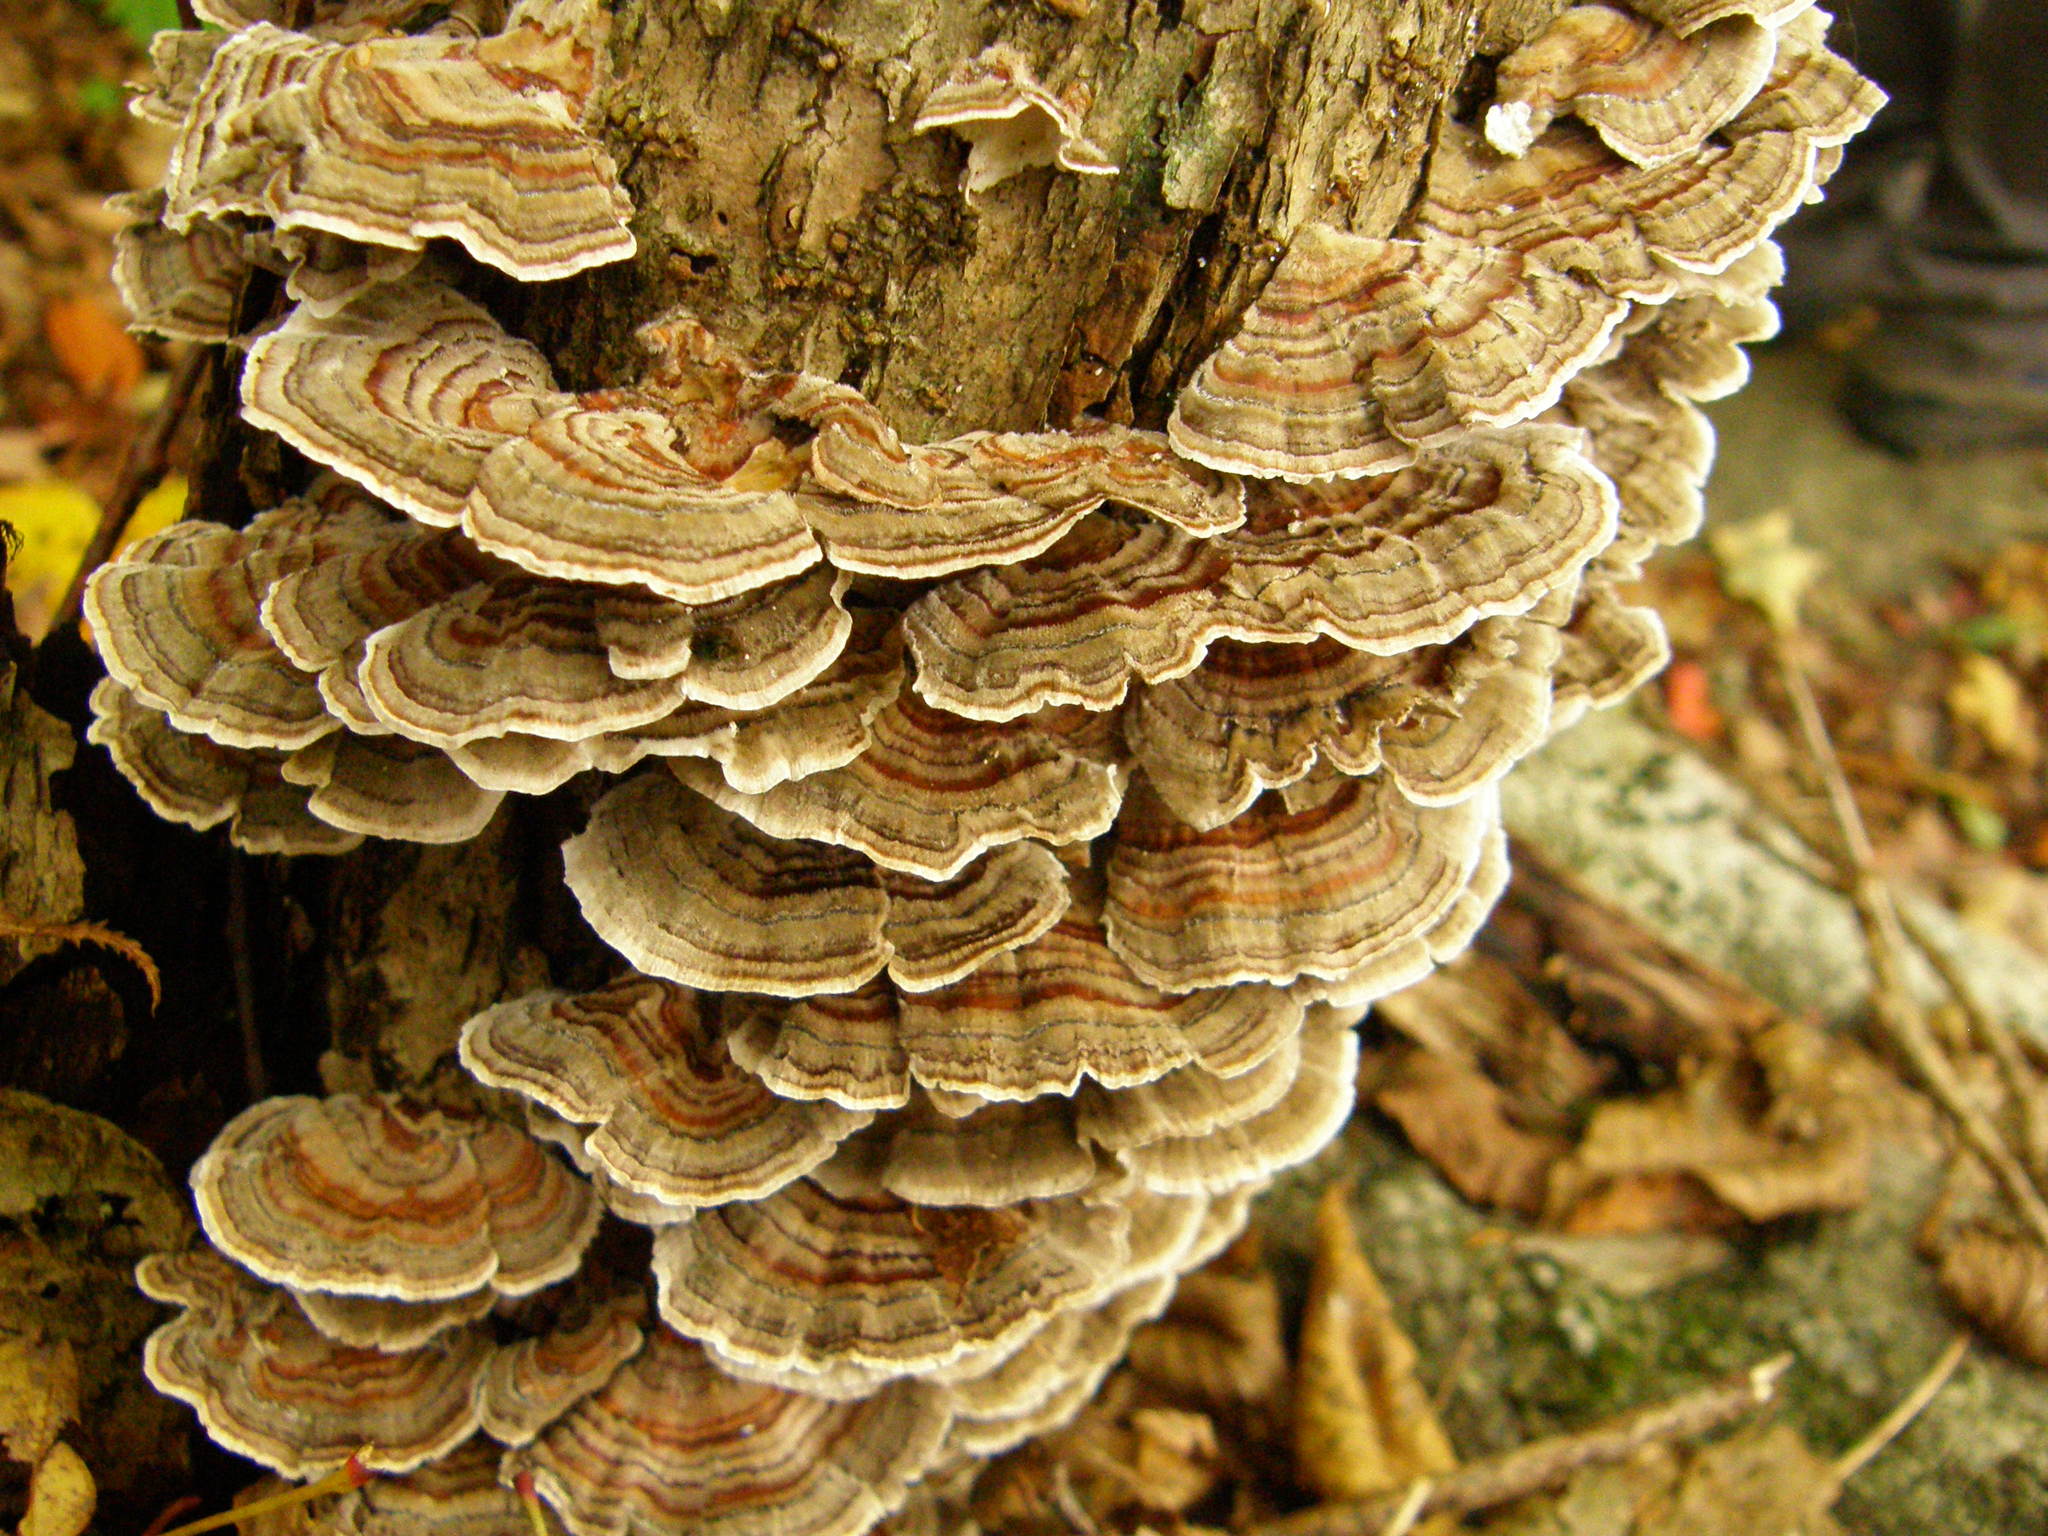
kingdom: Fungi
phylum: Basidiomycota
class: Agaricomycetes
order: Polyporales
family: Polyporaceae
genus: Trametes
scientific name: Trametes versicolor
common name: Turkeytail
